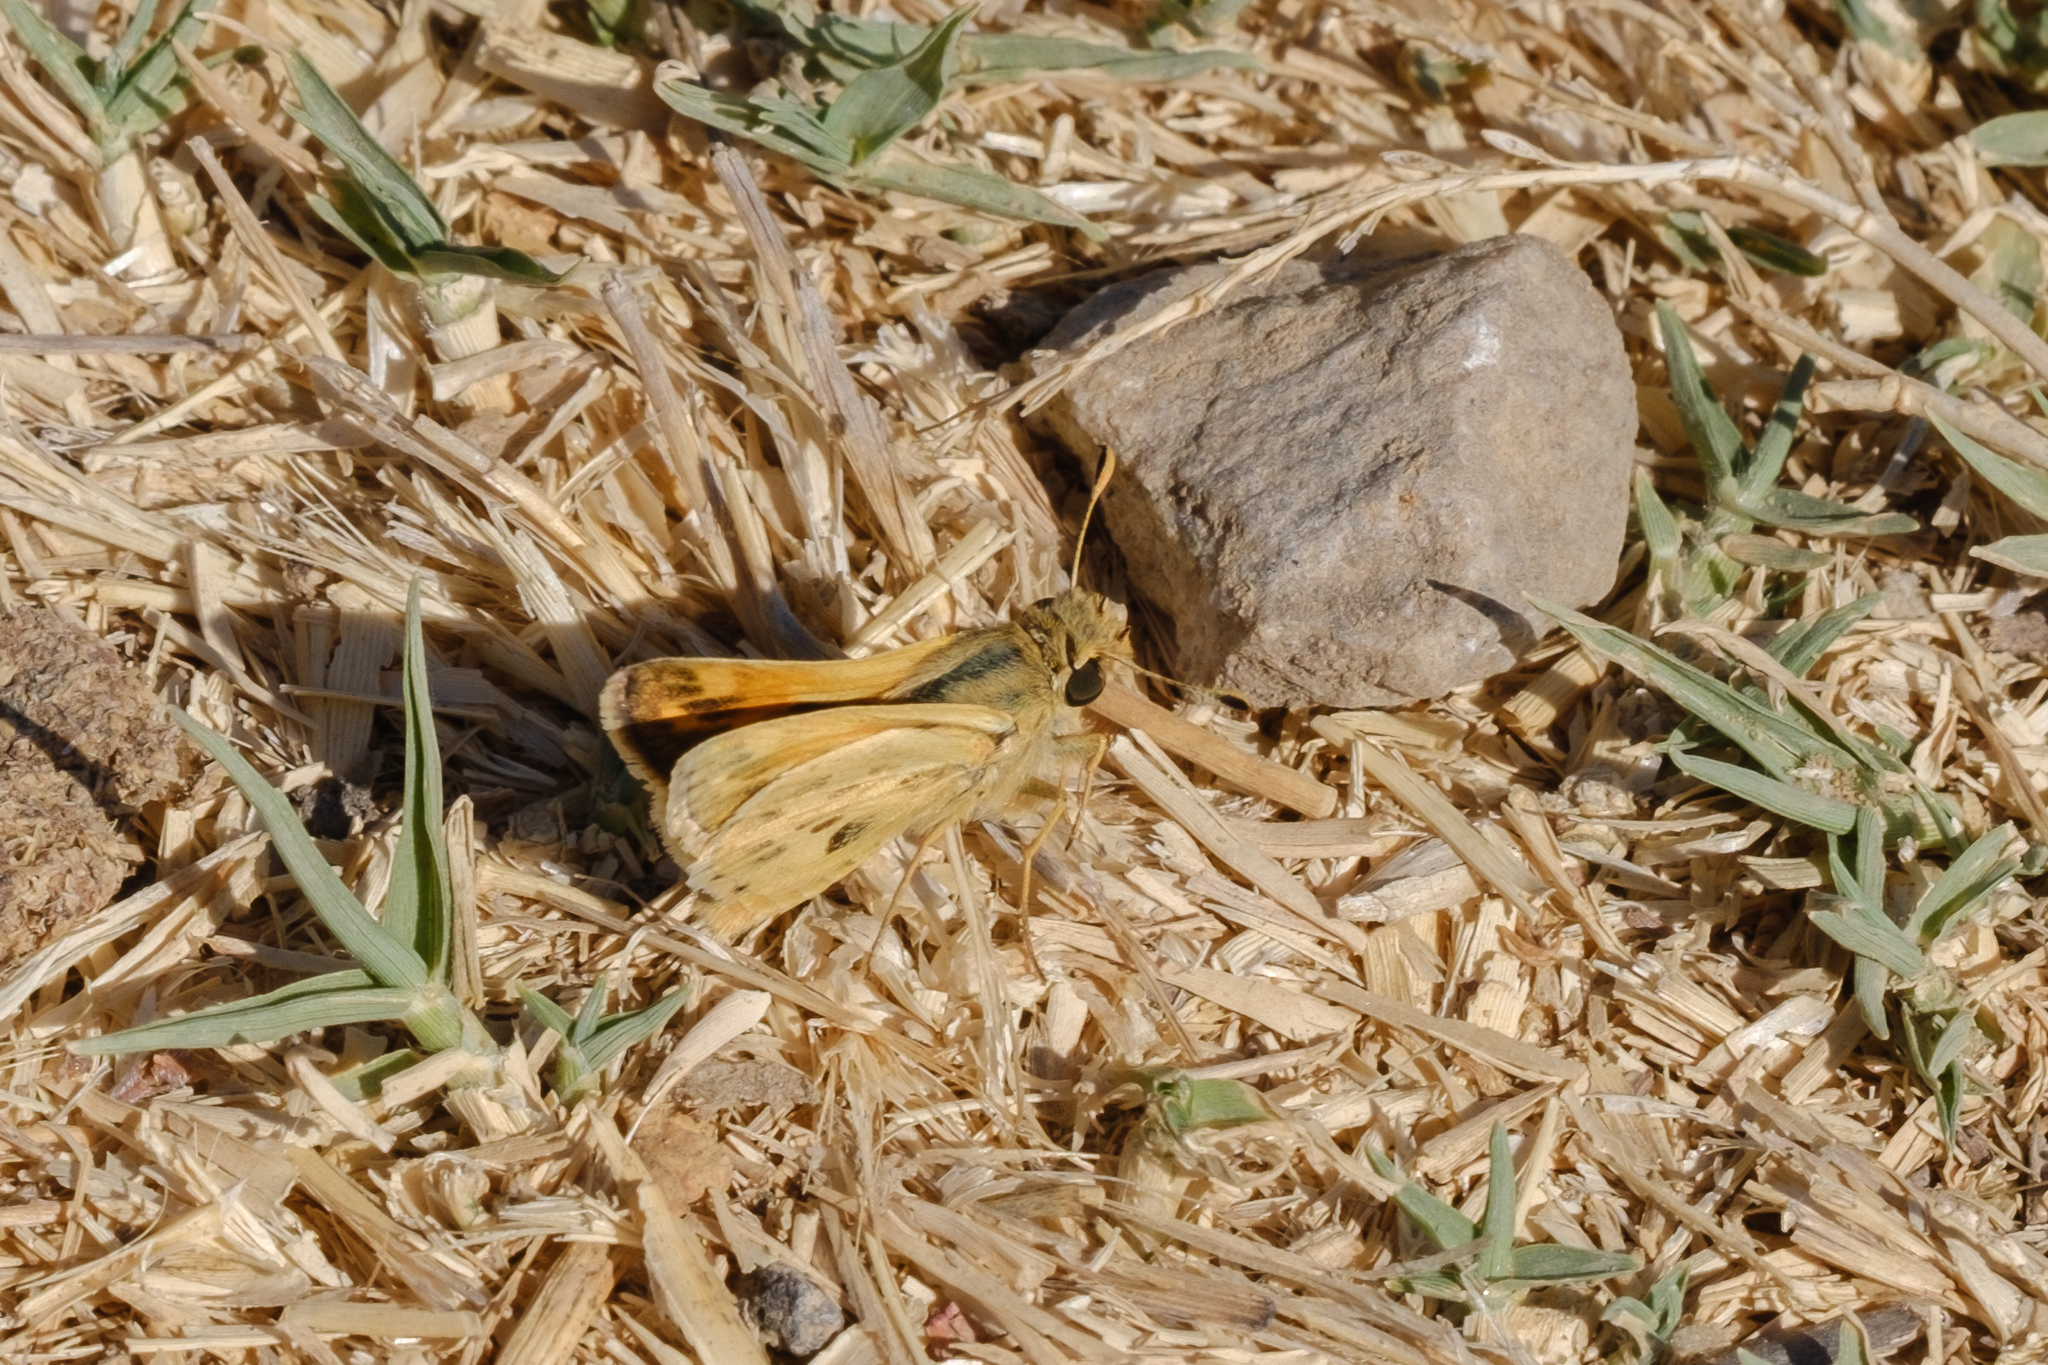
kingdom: Animalia
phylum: Arthropoda
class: Insecta
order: Lepidoptera
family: Hesperiidae
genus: Hylephila
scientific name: Hylephila phyleus
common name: Fiery skipper
